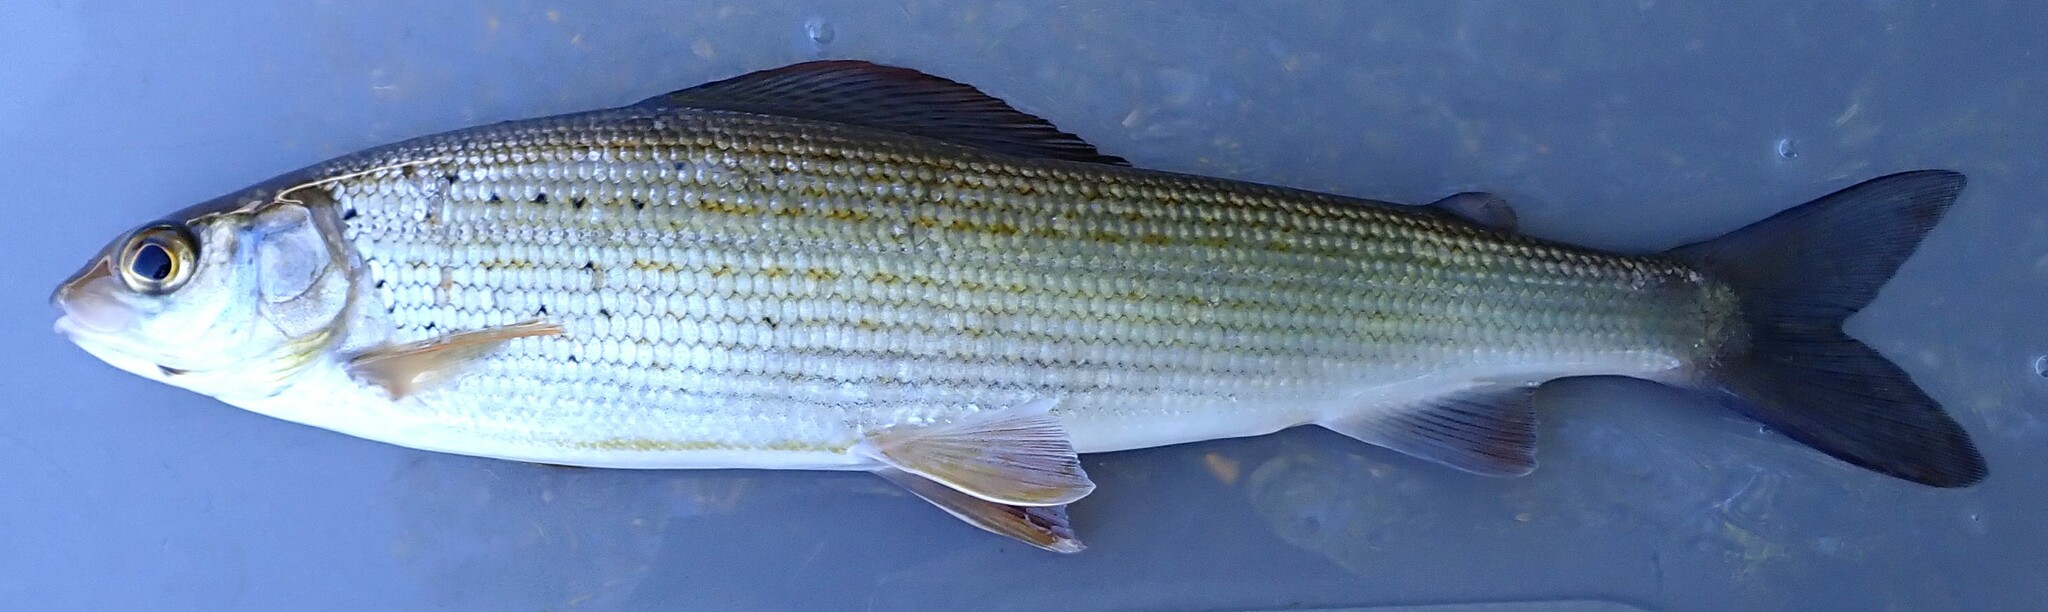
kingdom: Animalia
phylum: Chordata
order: Salmoniformes
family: Salmonidae
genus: Thymallus
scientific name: Thymallus thymallus
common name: Grayling
